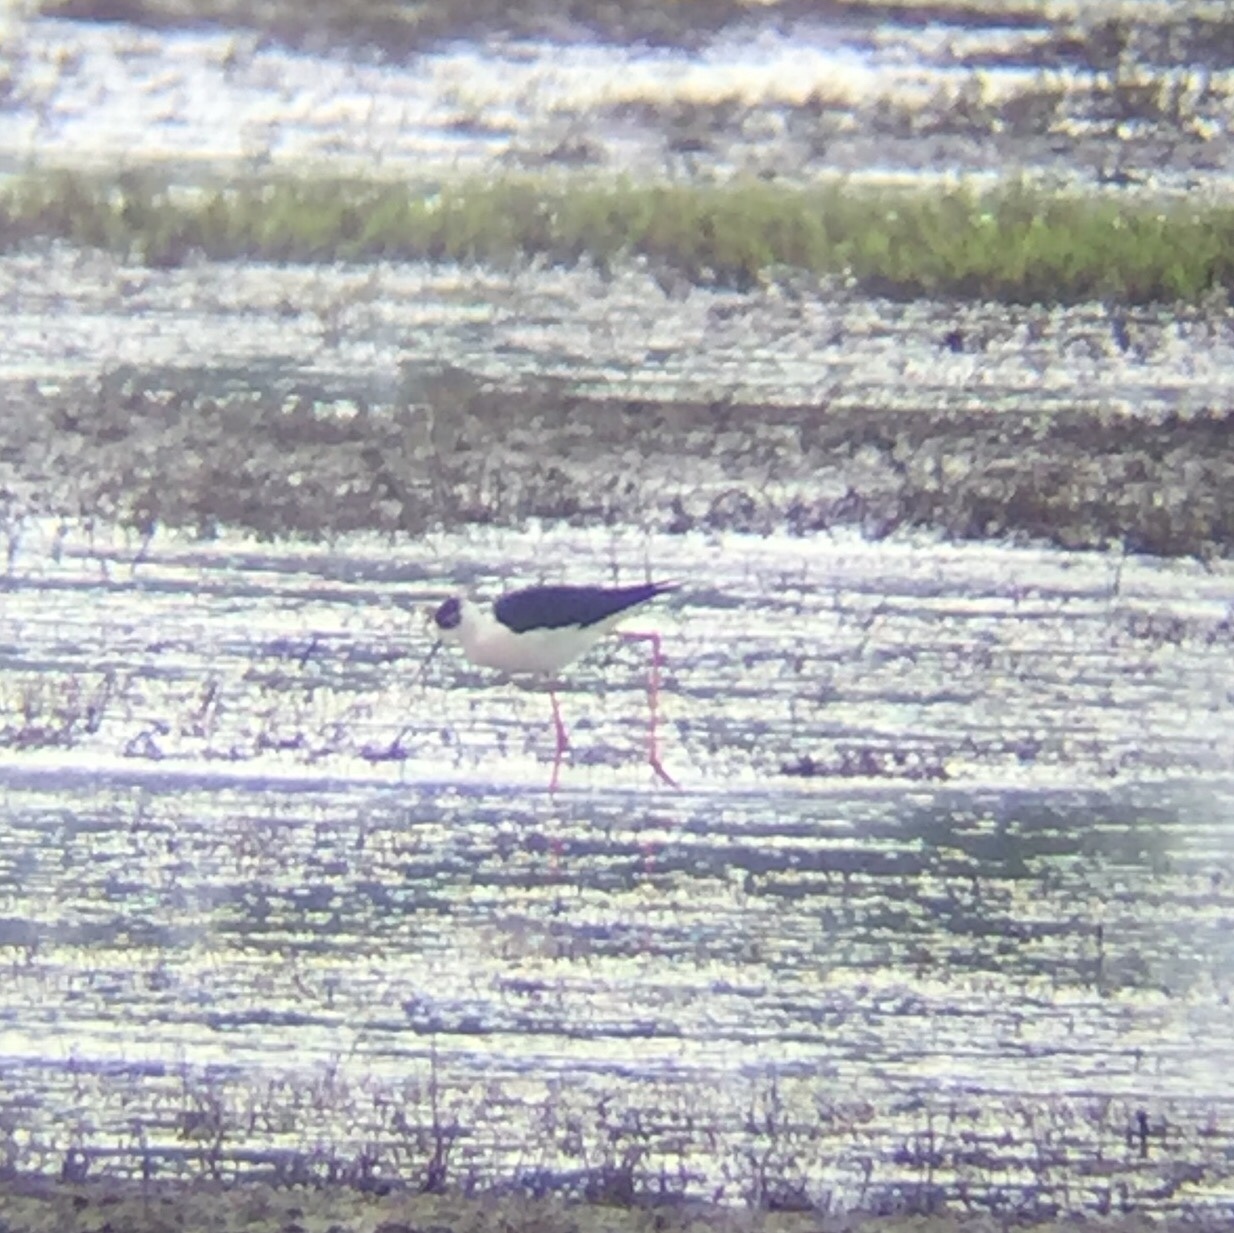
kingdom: Animalia
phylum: Chordata
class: Aves
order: Charadriiformes
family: Recurvirostridae
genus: Himantopus
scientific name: Himantopus himantopus
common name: Black-winged stilt
